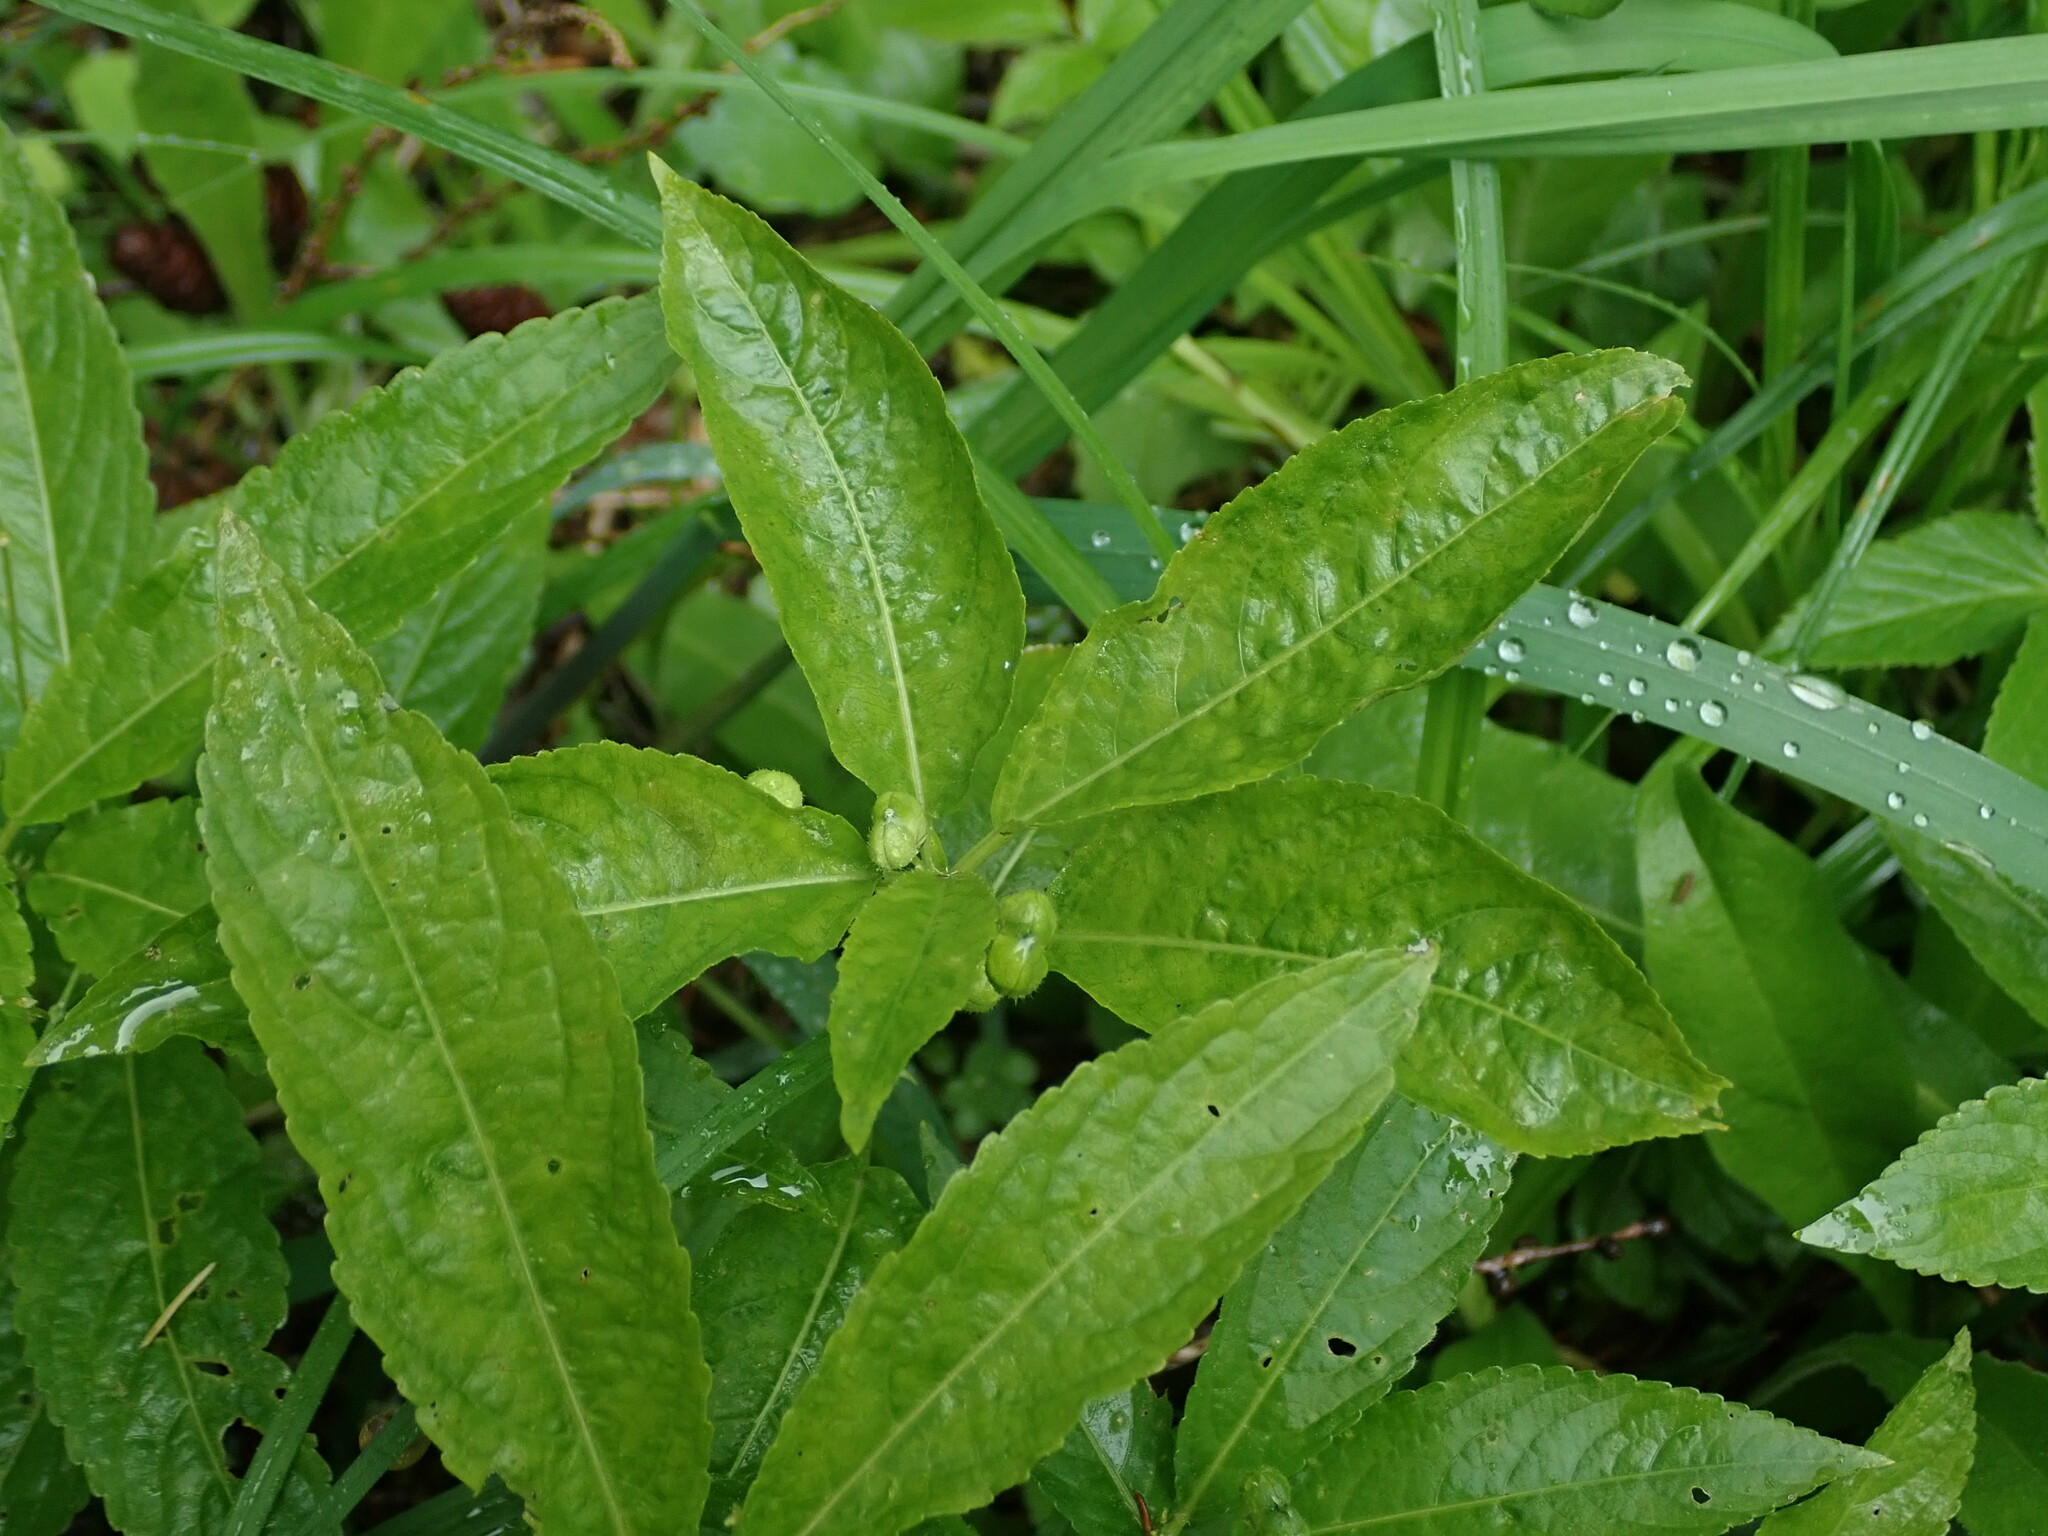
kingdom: Plantae
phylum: Tracheophyta
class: Magnoliopsida
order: Malpighiales
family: Euphorbiaceae
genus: Mercurialis
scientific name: Mercurialis perennis
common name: Dog mercury
